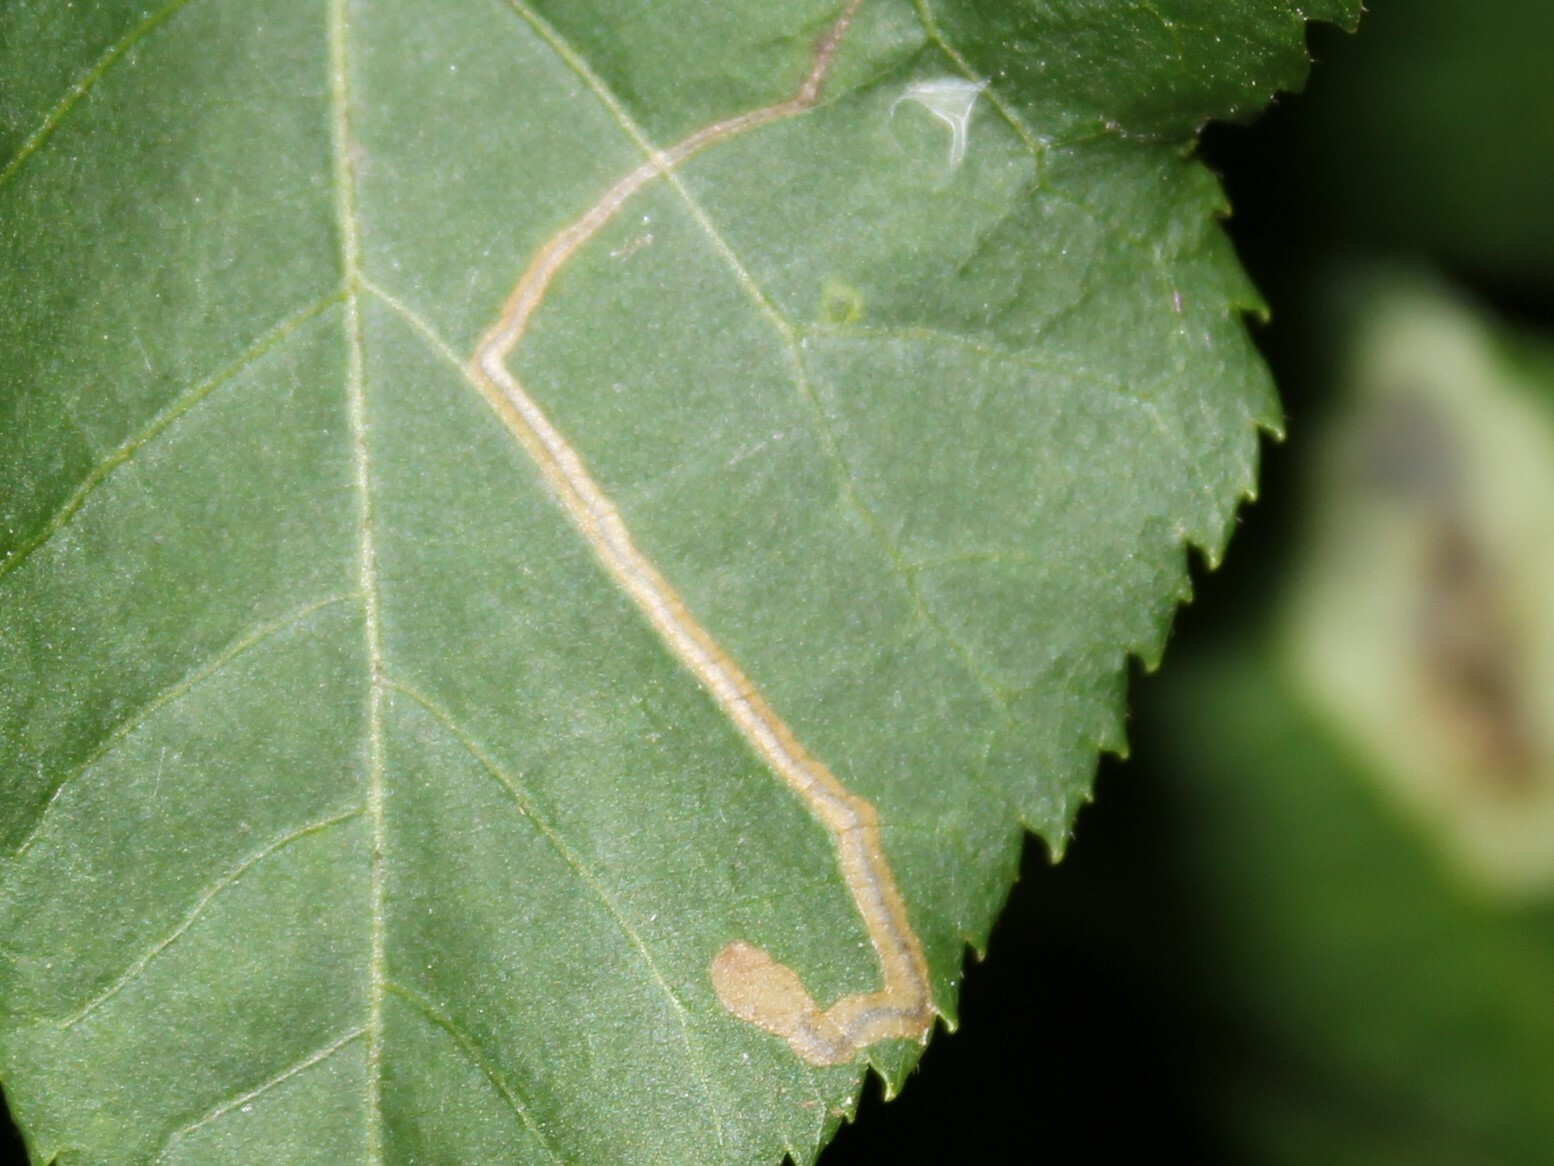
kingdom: Animalia
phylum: Arthropoda
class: Insecta
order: Lepidoptera
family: Nepticulidae
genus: Stigmella
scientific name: Stigmella caryaefoliella
